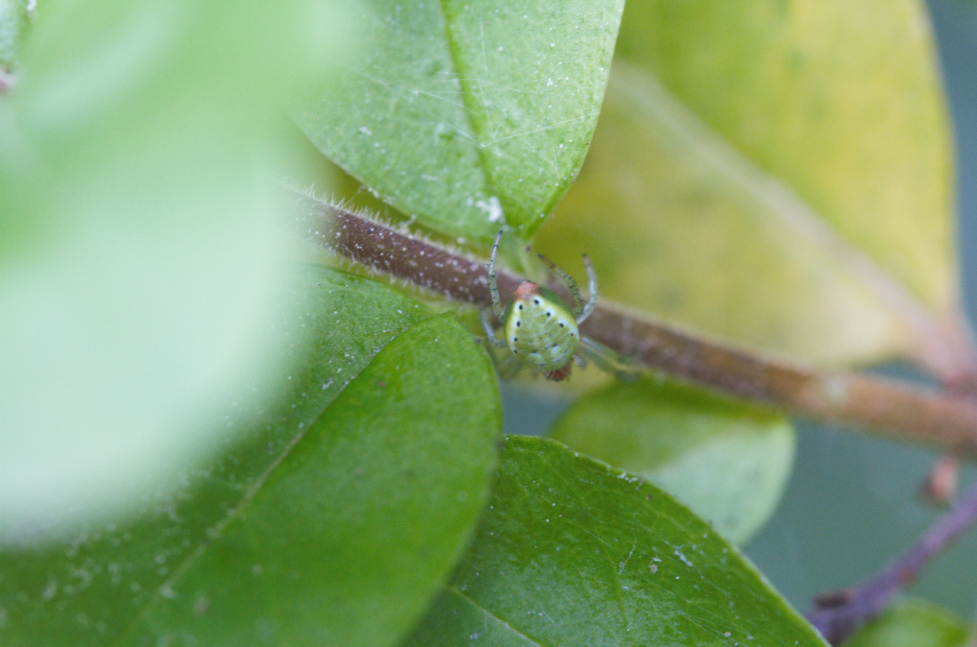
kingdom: Animalia
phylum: Arthropoda
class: Arachnida
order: Araneae
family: Araneidae
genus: Araniella
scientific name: Araniella
